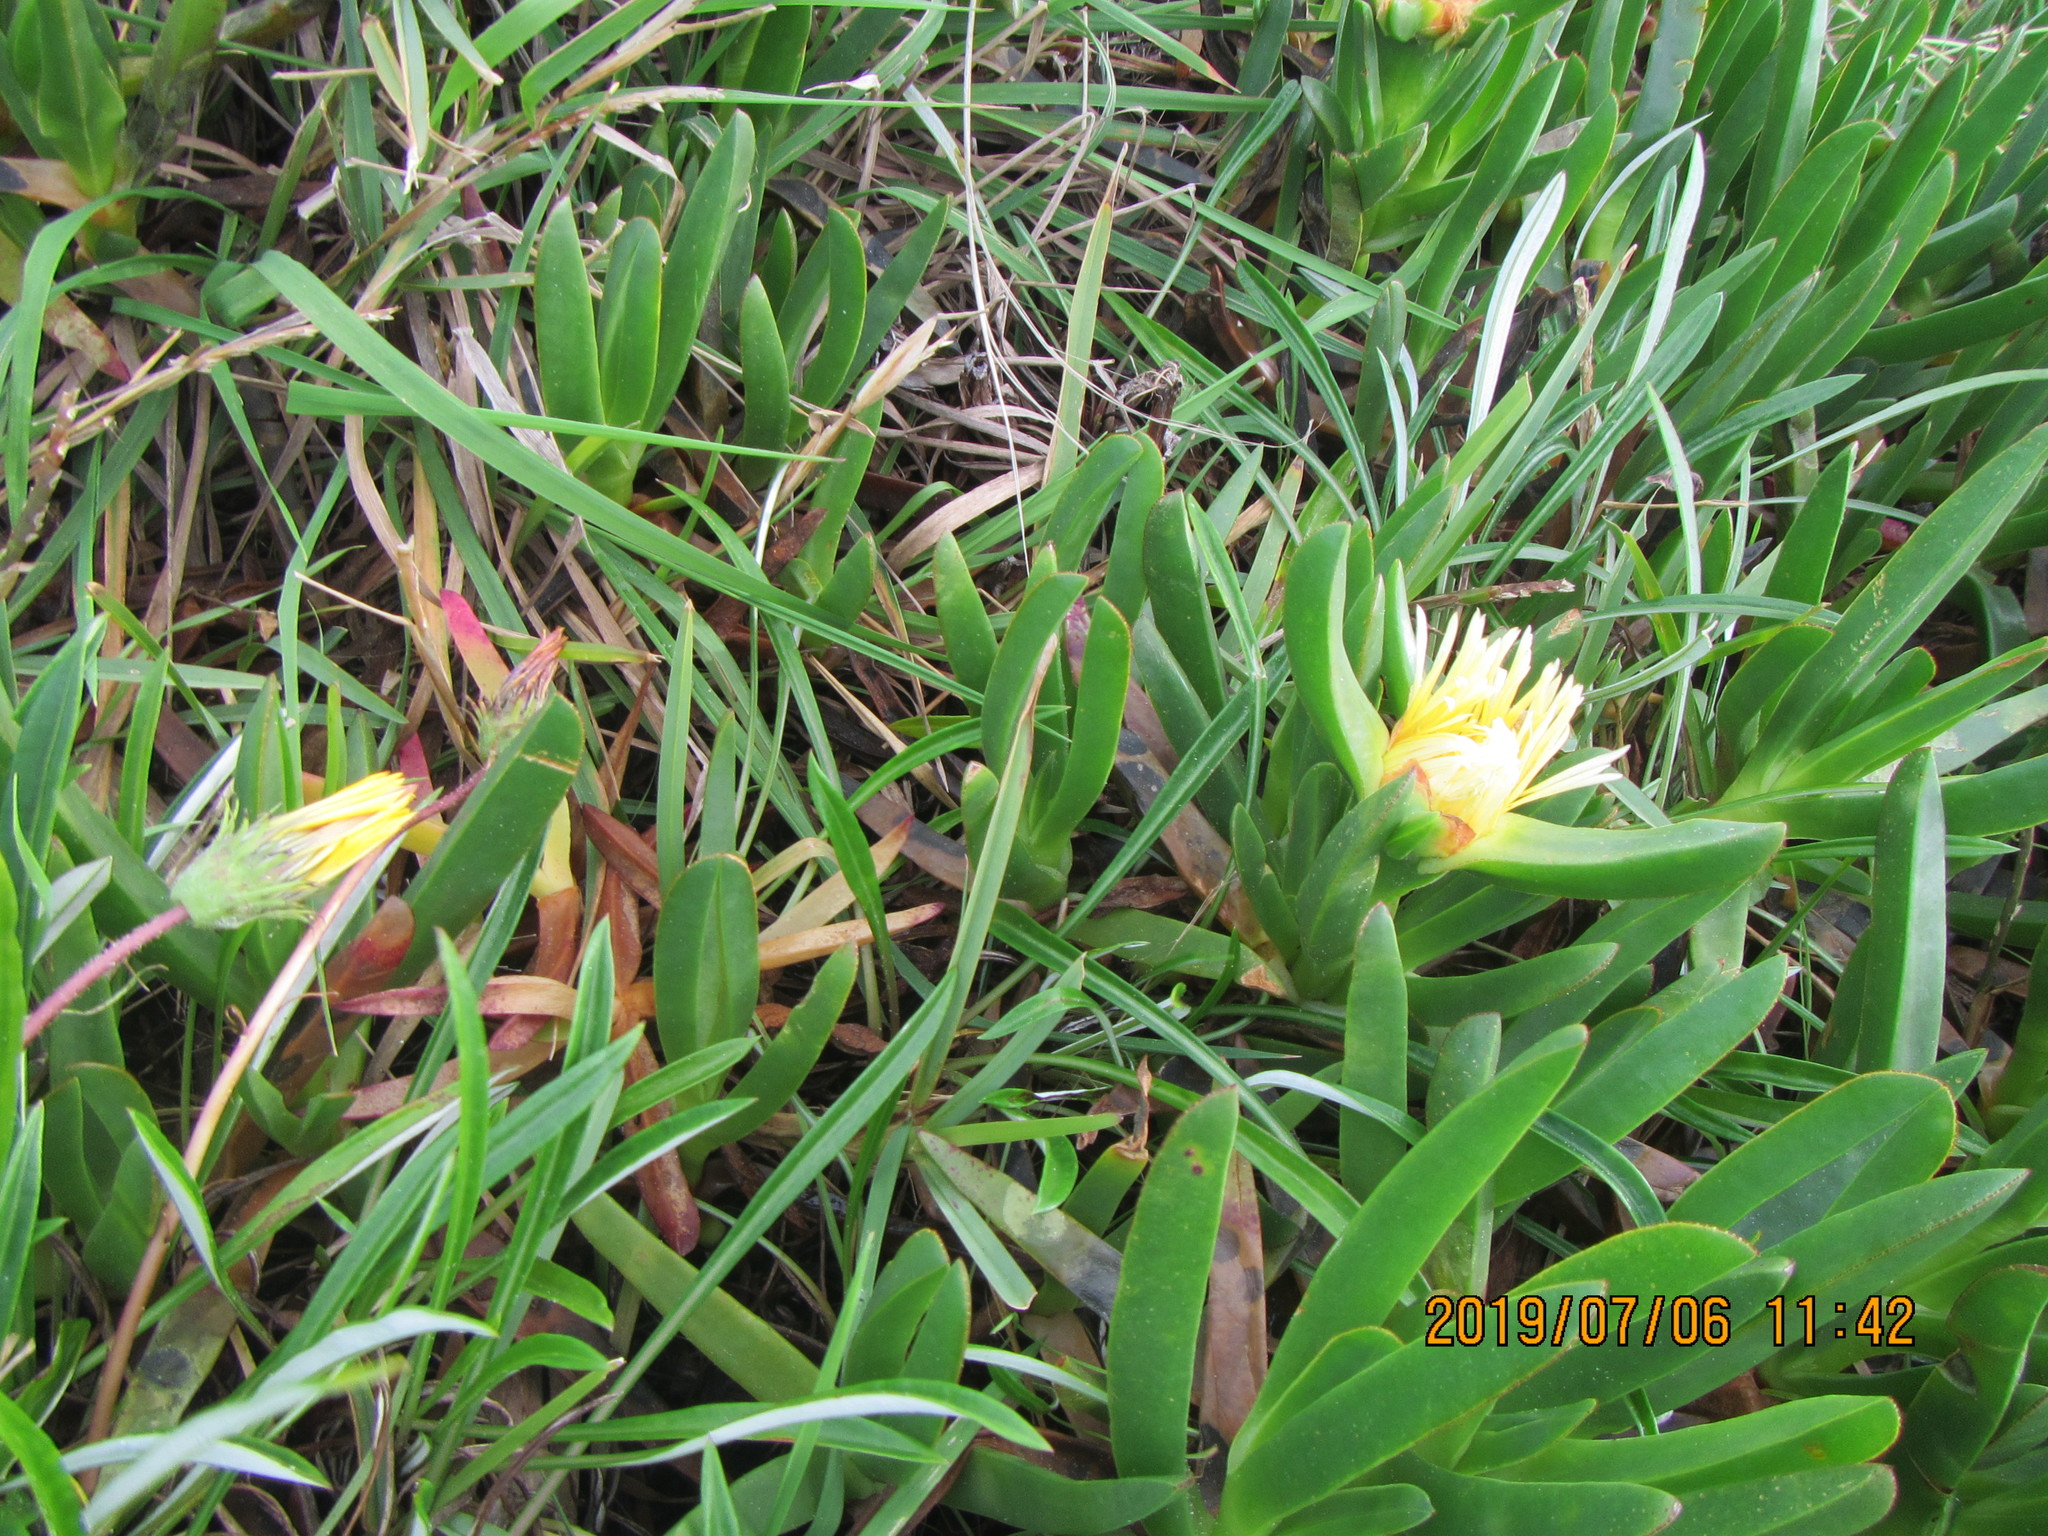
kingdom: Plantae
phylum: Tracheophyta
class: Magnoliopsida
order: Caryophyllales
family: Aizoaceae
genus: Carpobrotus
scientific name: Carpobrotus edulis
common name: Hottentot-fig
